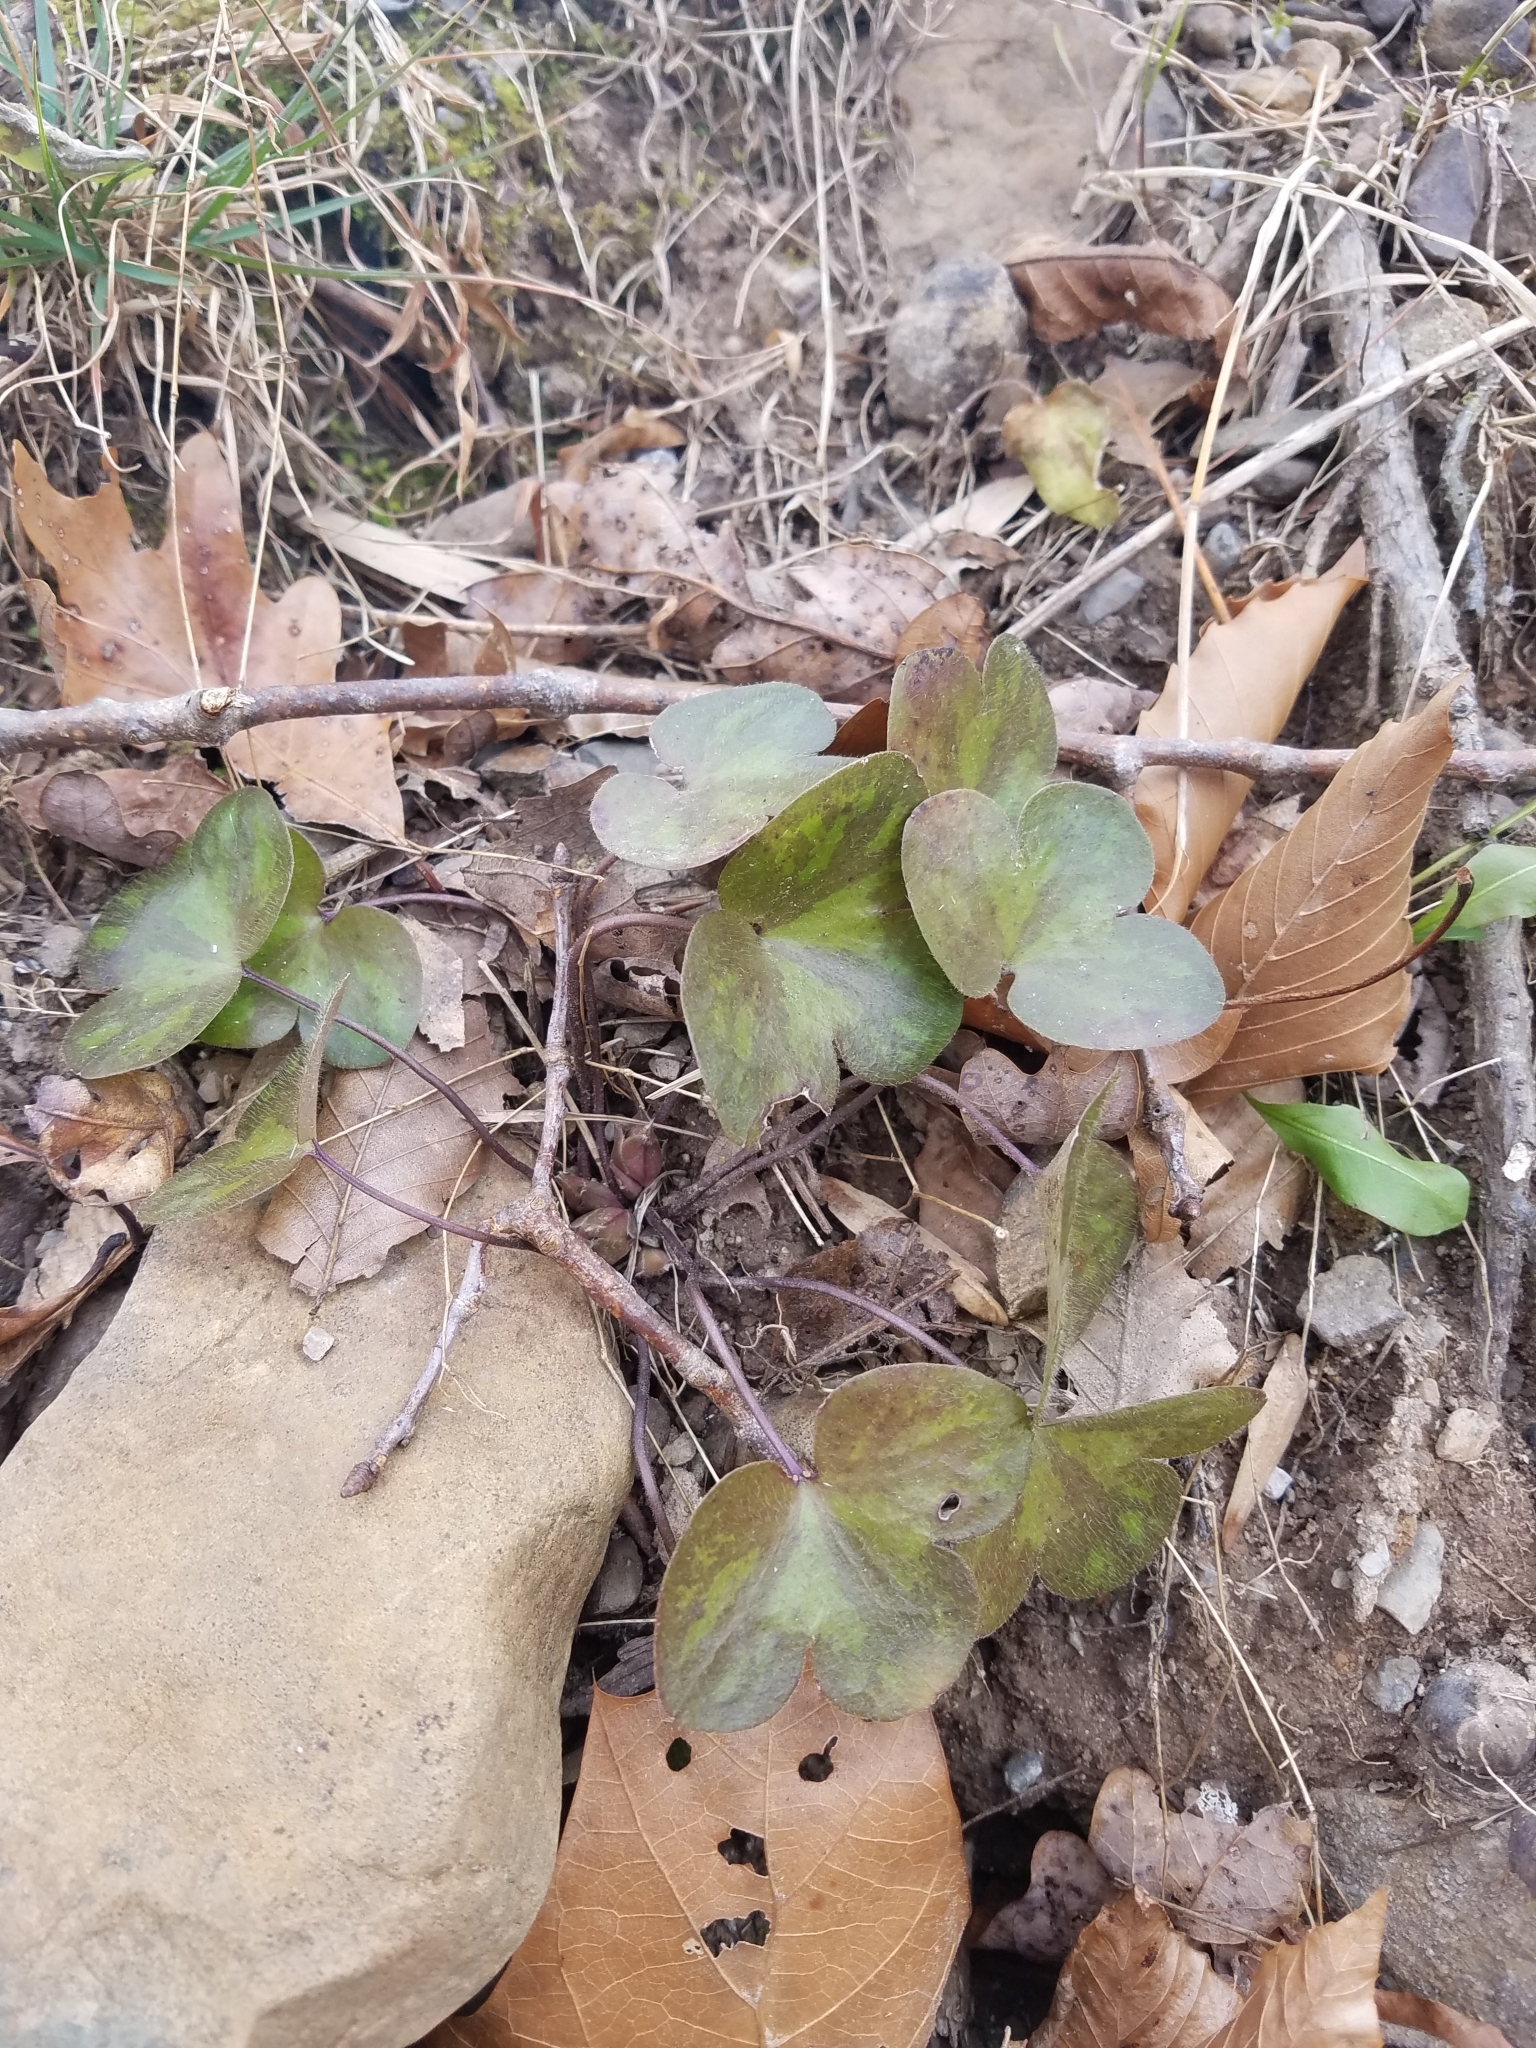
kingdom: Plantae
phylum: Tracheophyta
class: Magnoliopsida
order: Ranunculales
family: Ranunculaceae
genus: Hepatica
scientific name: Hepatica americana
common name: American hepatica
